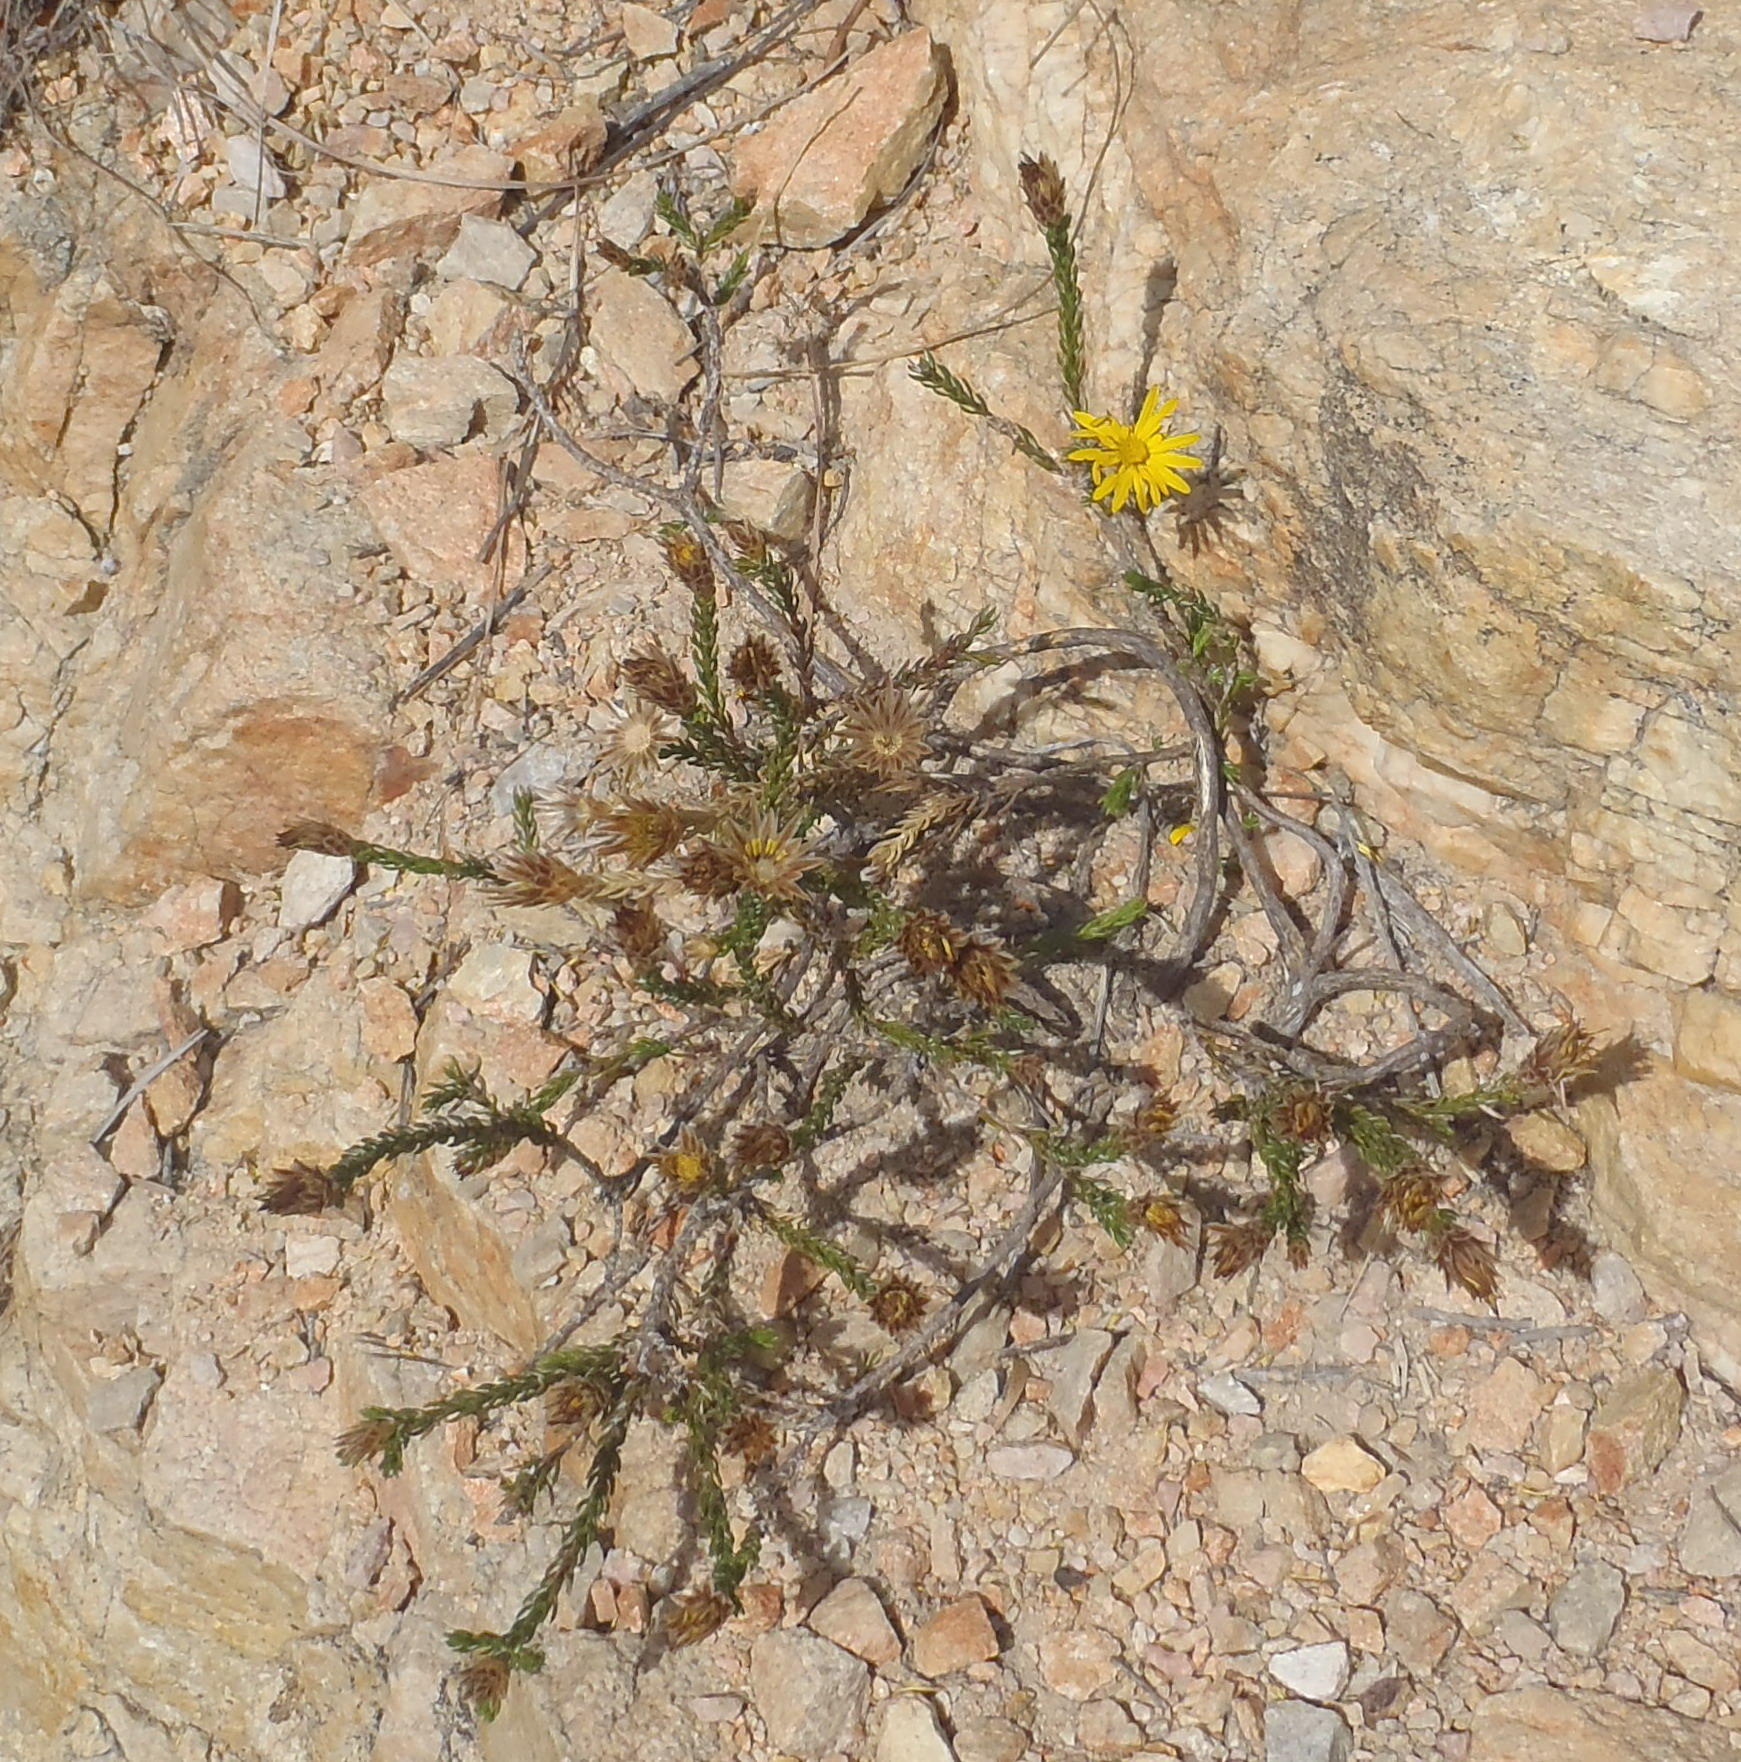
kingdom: Plantae
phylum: Tracheophyta
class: Magnoliopsida
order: Asterales
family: Asteraceae
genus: Oedera
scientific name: Oedera decussata
